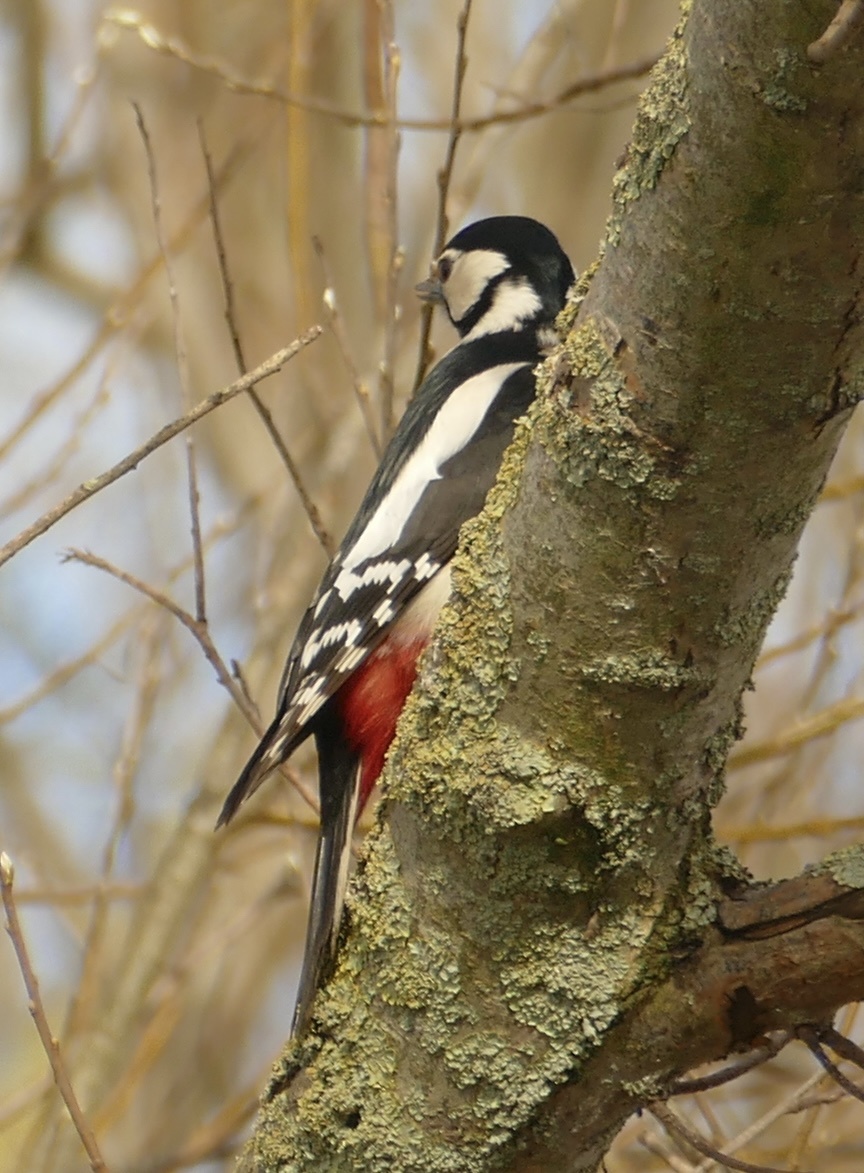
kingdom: Animalia
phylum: Chordata
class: Aves
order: Piciformes
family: Picidae
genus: Dendrocopos
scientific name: Dendrocopos major
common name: Great spotted woodpecker
